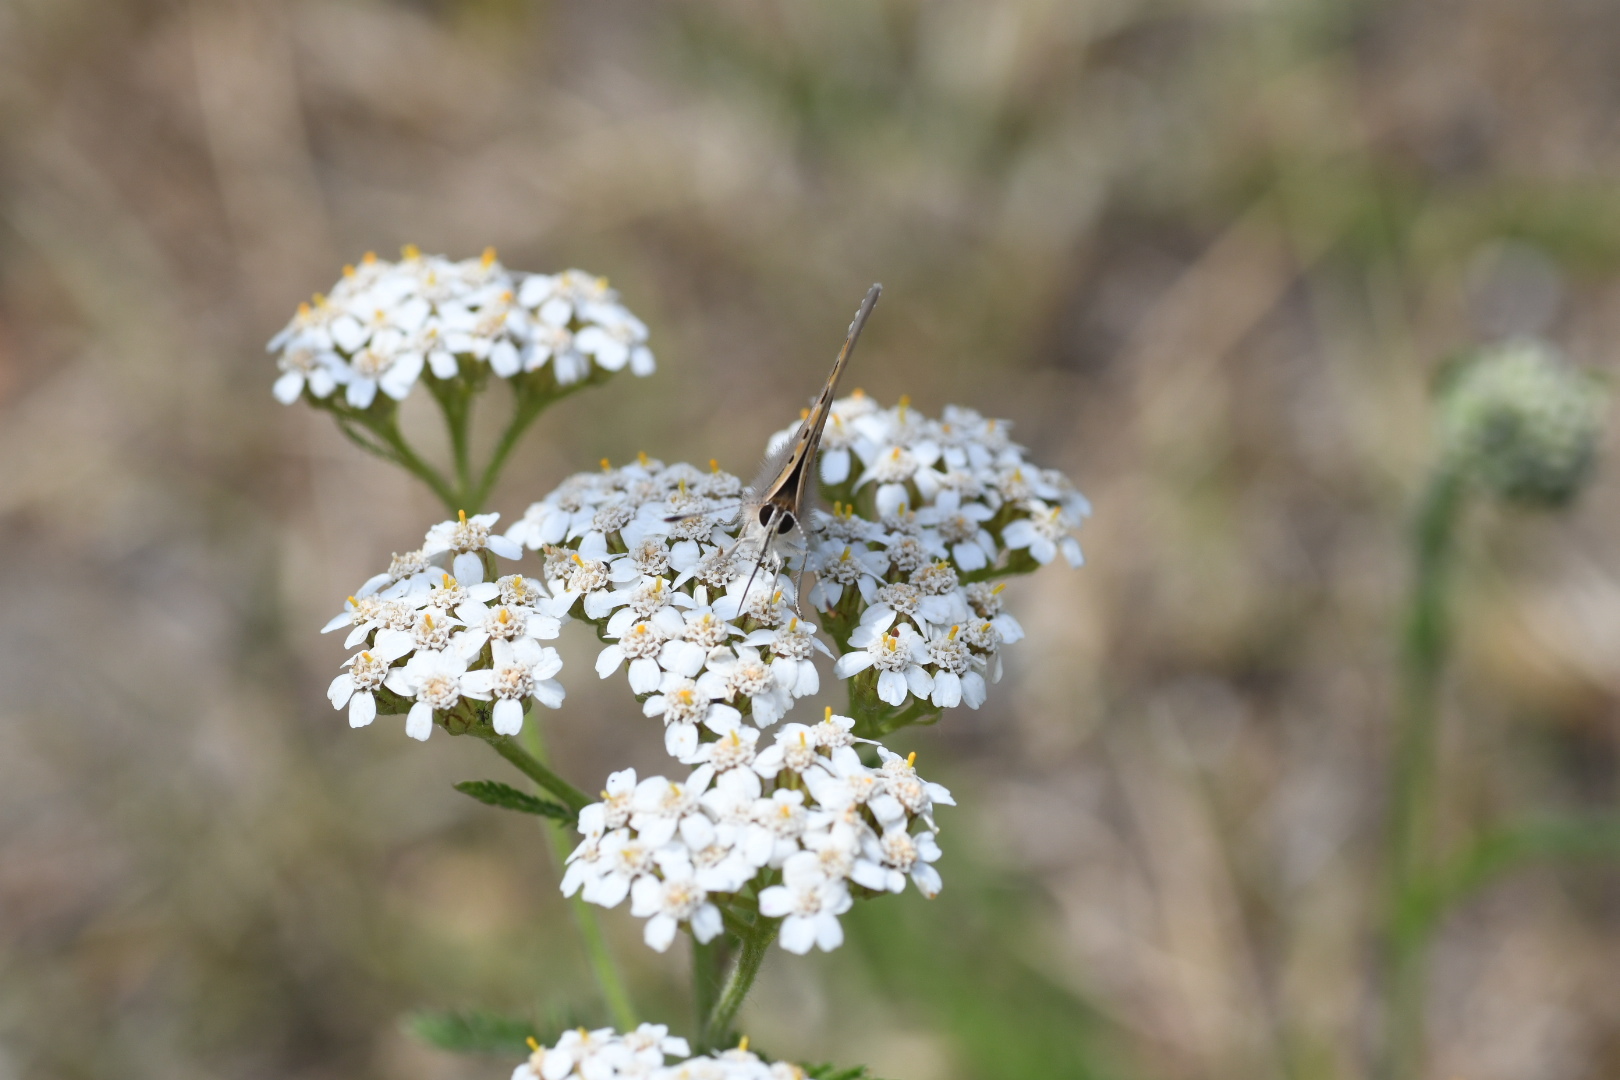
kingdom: Animalia
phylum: Arthropoda
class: Insecta
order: Lepidoptera
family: Lycaenidae
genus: Lycaena
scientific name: Lycaena phlaeas
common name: Small copper
